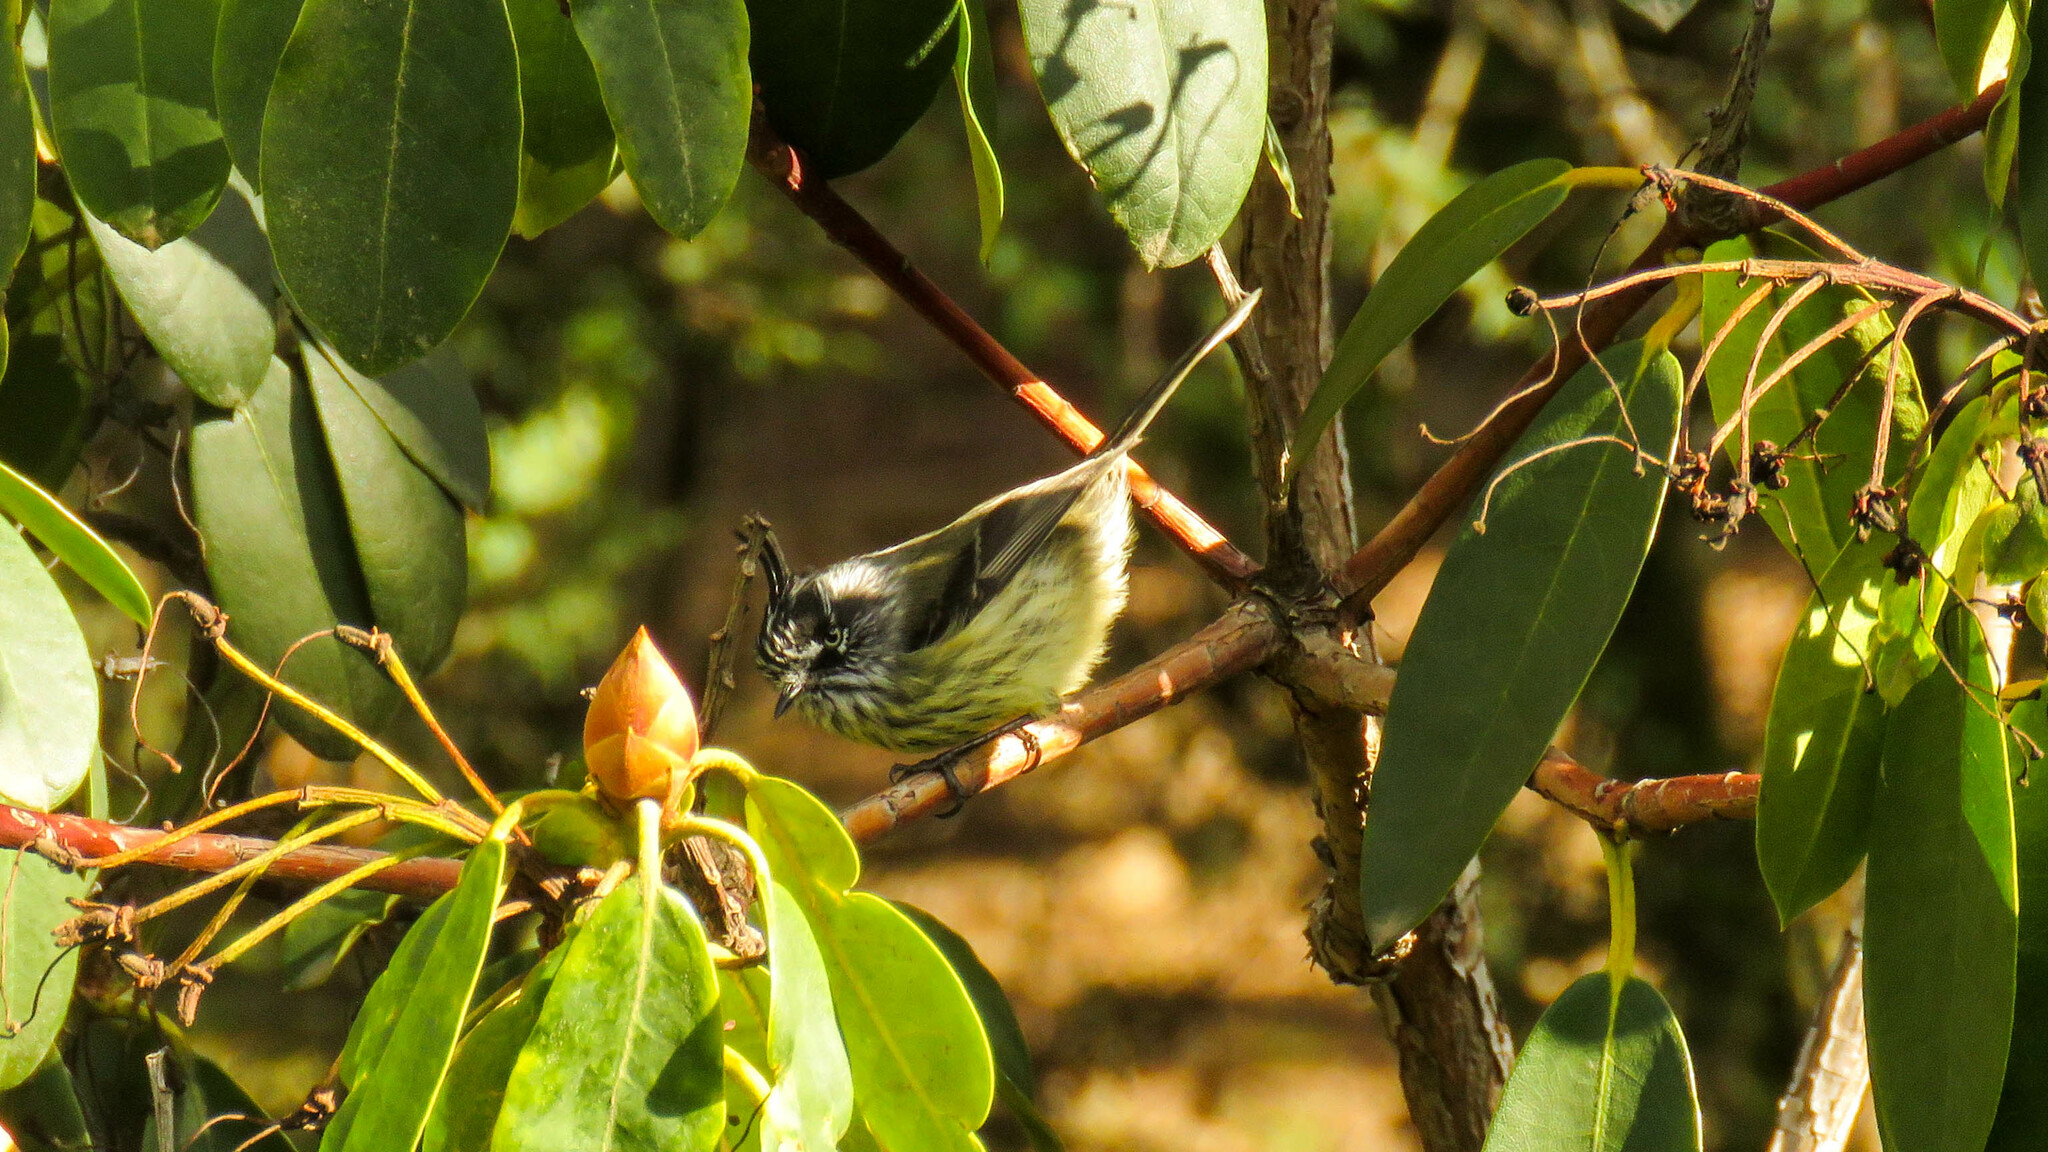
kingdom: Animalia
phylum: Chordata
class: Aves
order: Passeriformes
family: Tyrannidae
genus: Anairetes
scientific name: Anairetes parulus
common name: Tufted tit-tyrant
